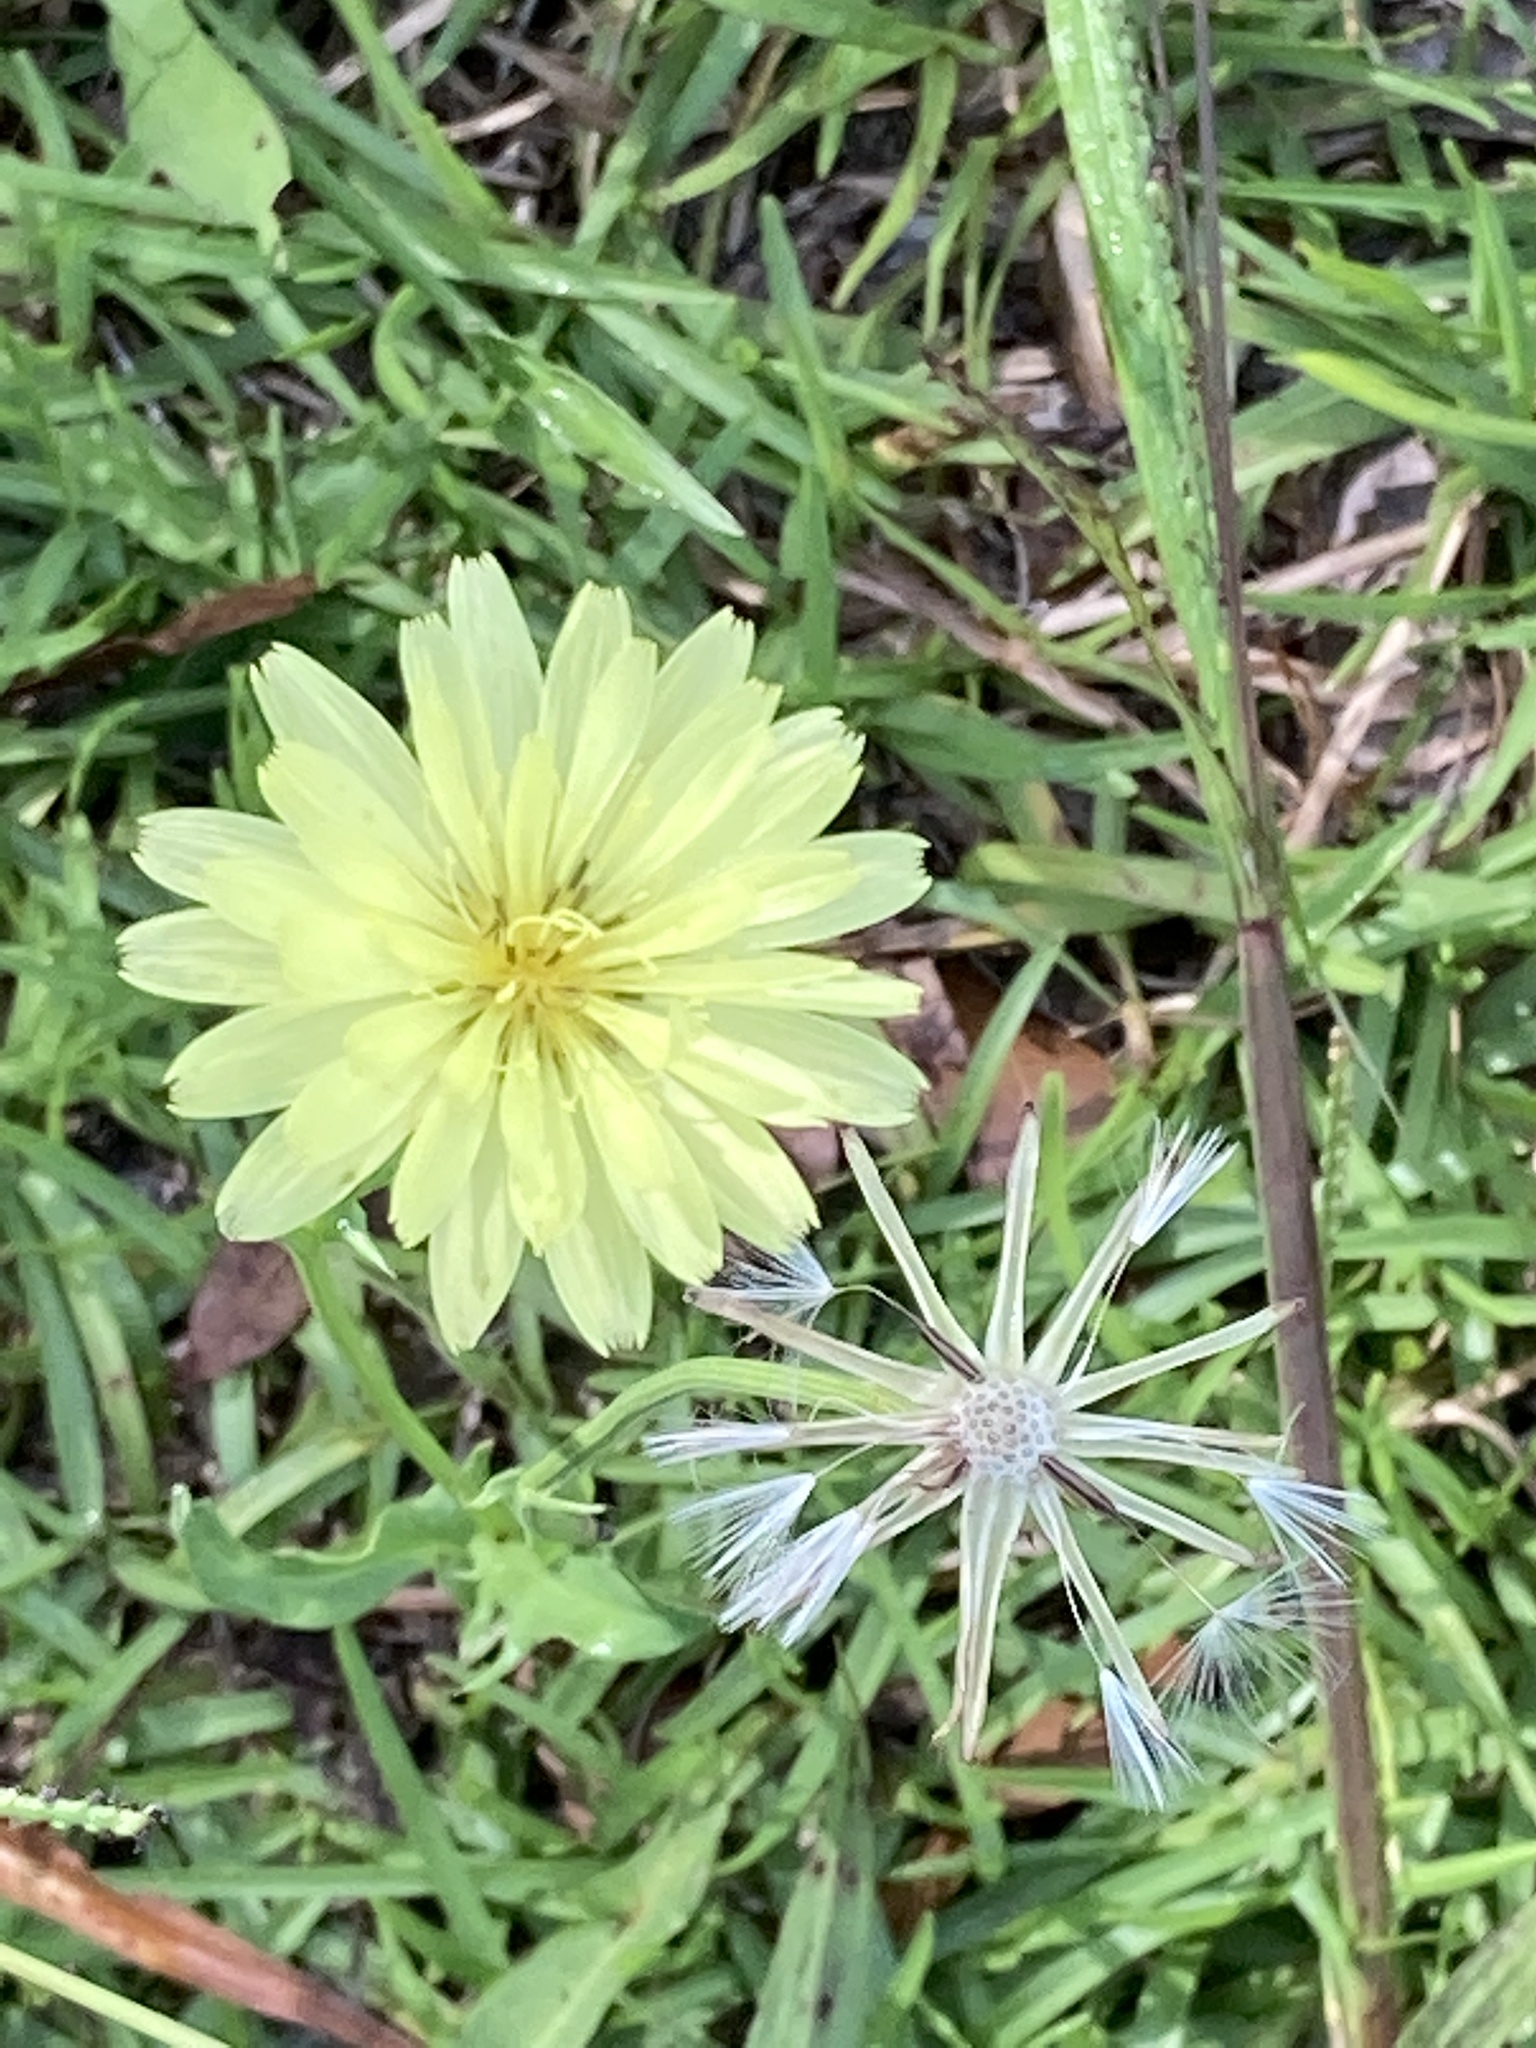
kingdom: Plantae
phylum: Tracheophyta
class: Magnoliopsida
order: Asterales
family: Asteraceae
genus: Pyrrhopappus
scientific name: Pyrrhopappus carolinianus
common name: Carolina desert-chicory
